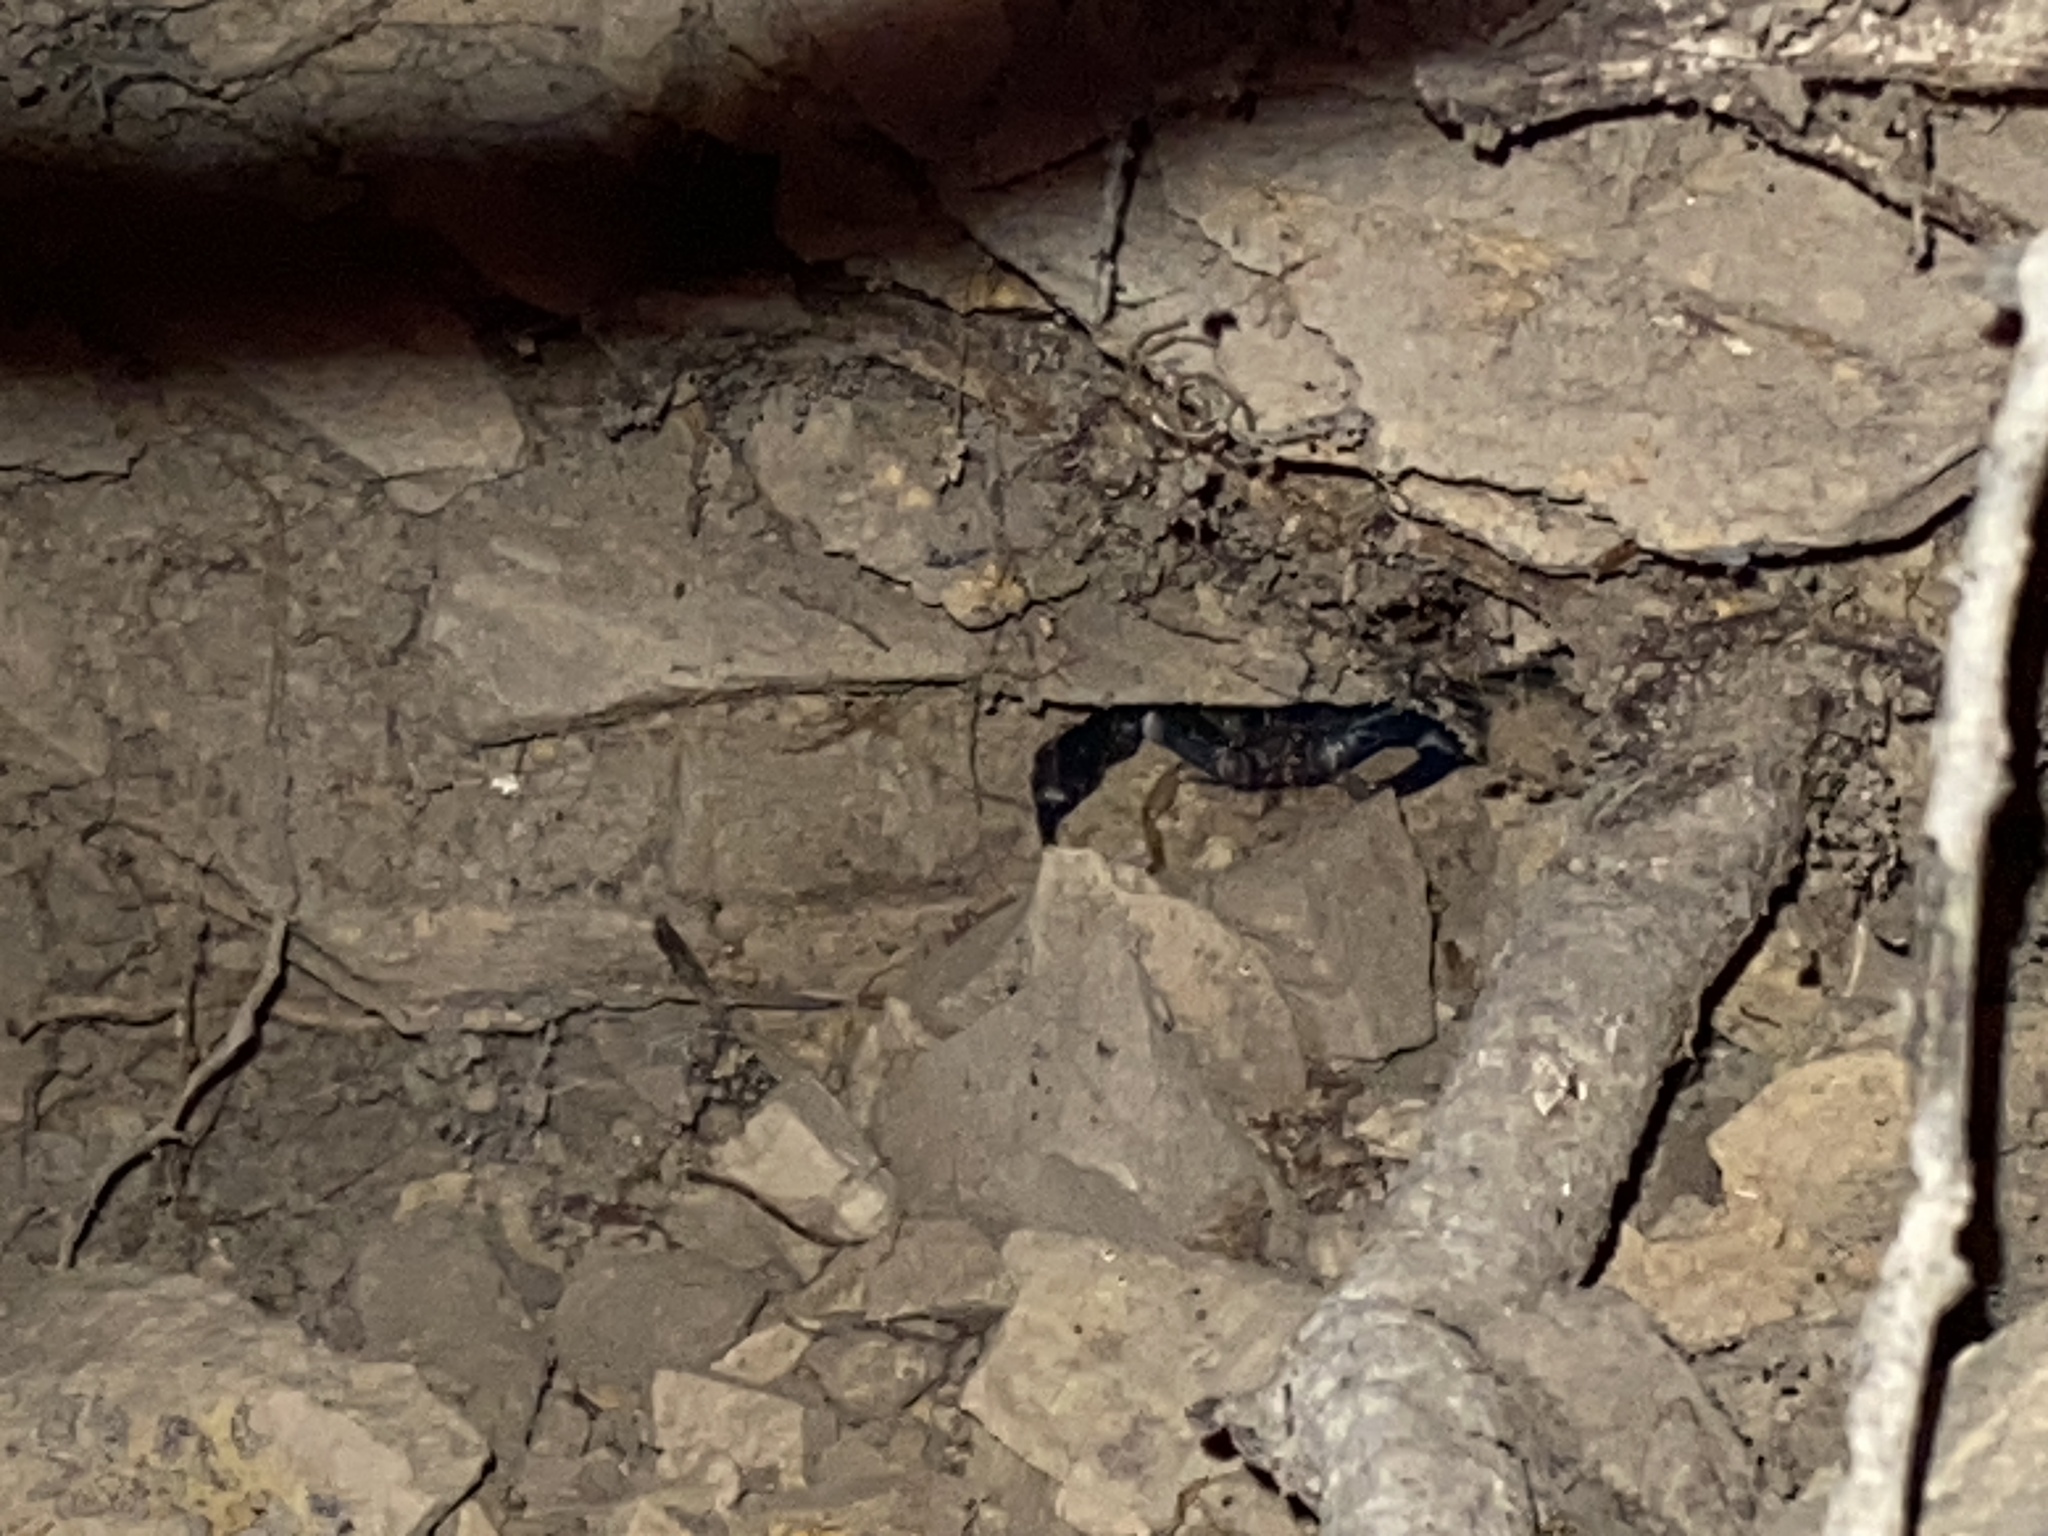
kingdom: Animalia
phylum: Arthropoda
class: Arachnida
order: Scorpiones
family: Chactidae
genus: Uroctonus
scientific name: Uroctonus mordax
